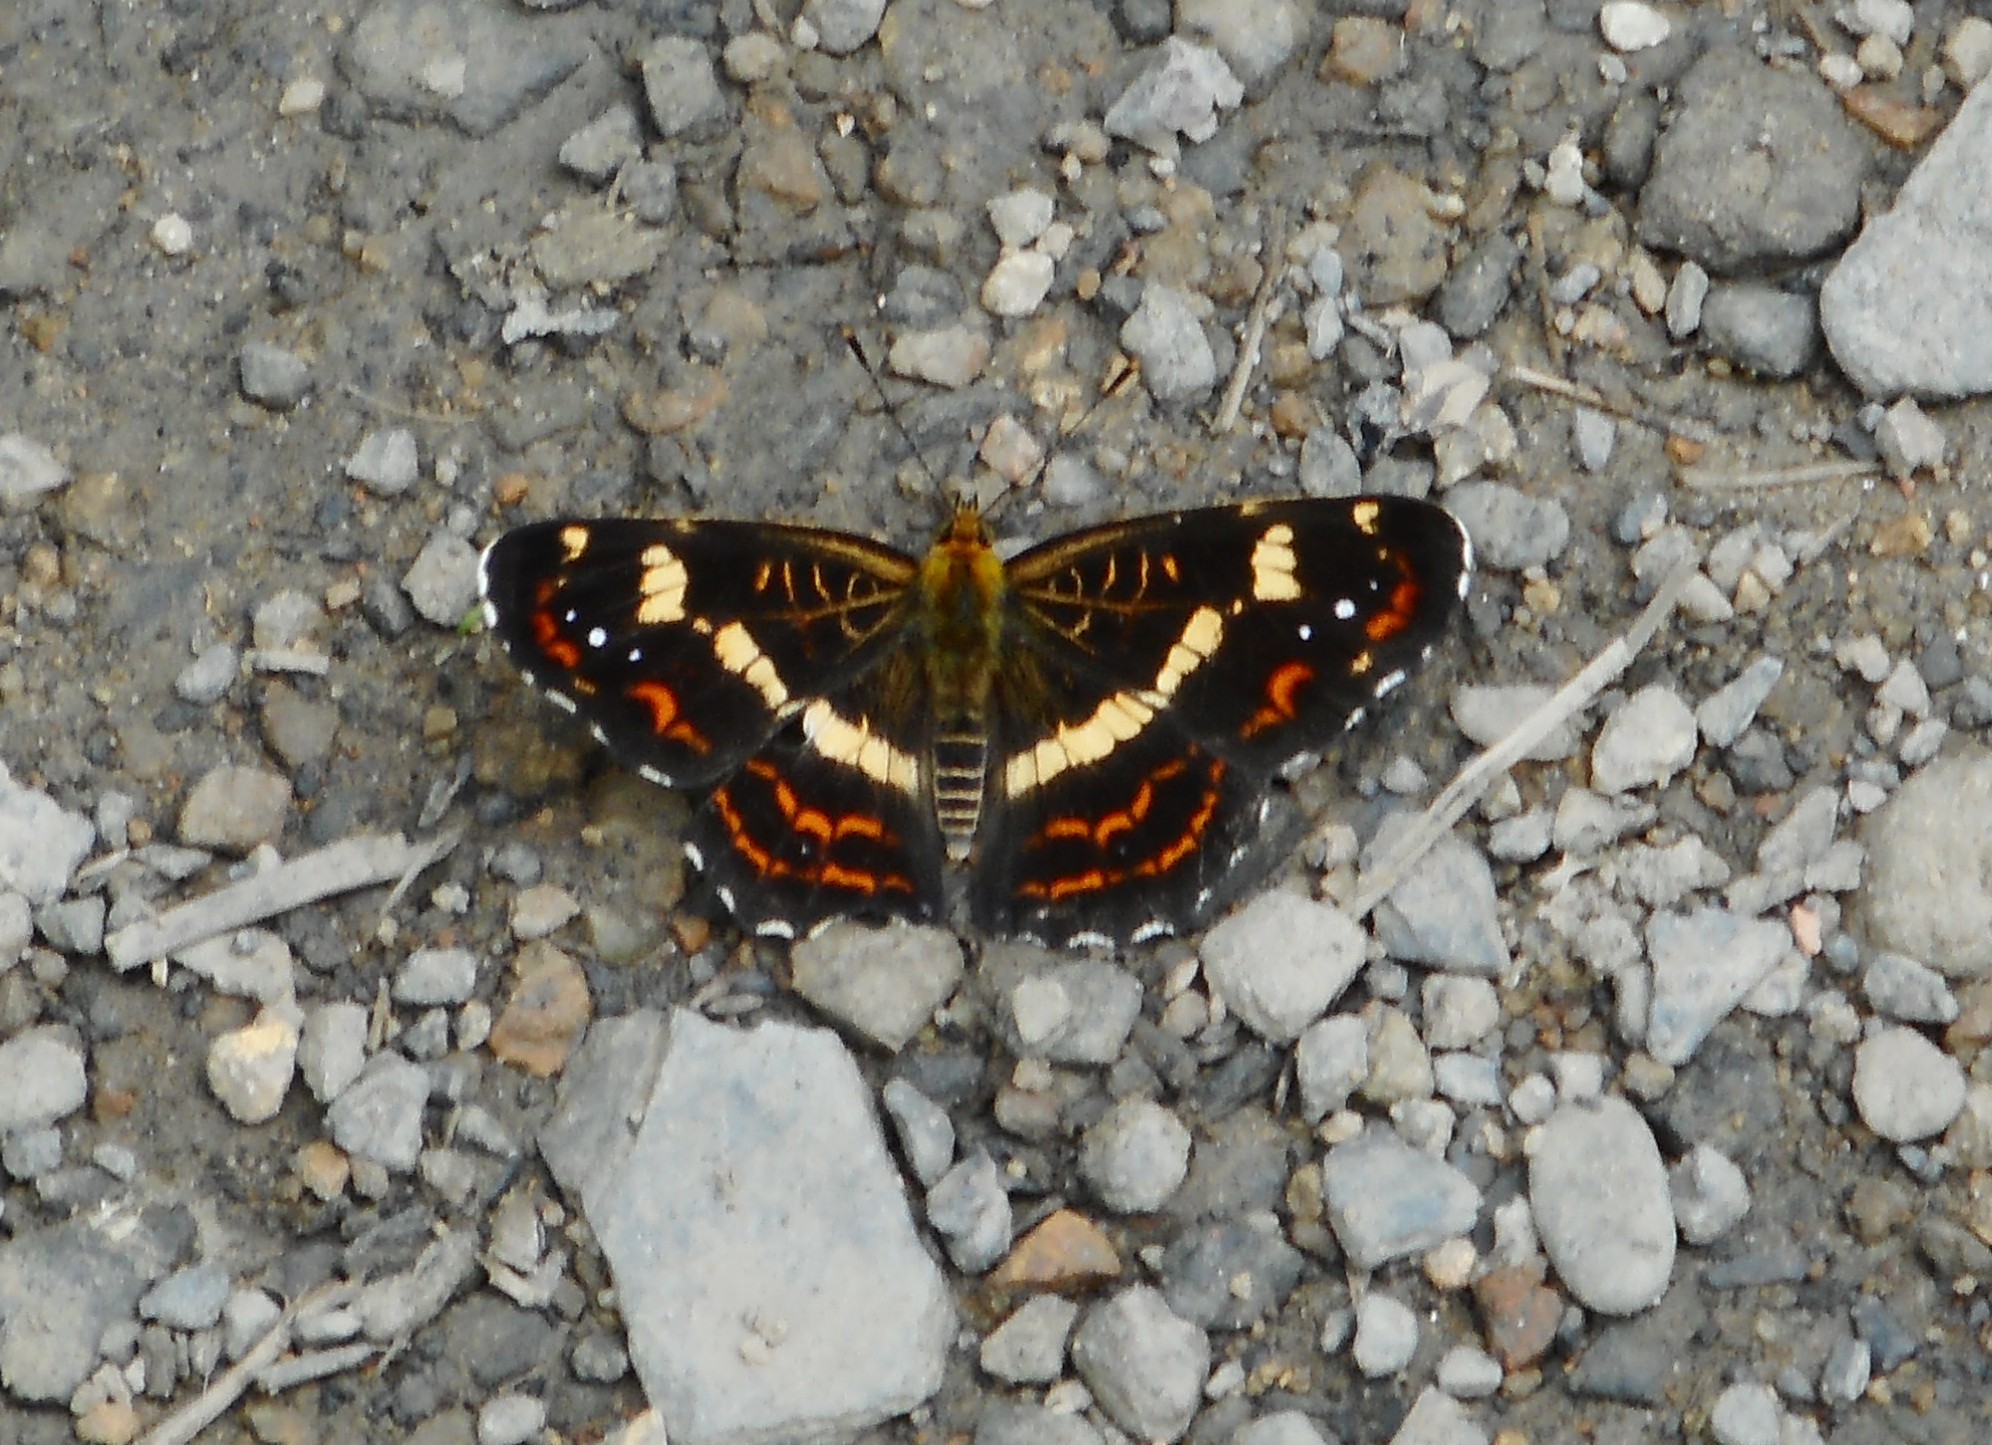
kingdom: Animalia
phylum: Arthropoda
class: Insecta
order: Lepidoptera
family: Nymphalidae
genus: Araschnia
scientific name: Araschnia burejana
